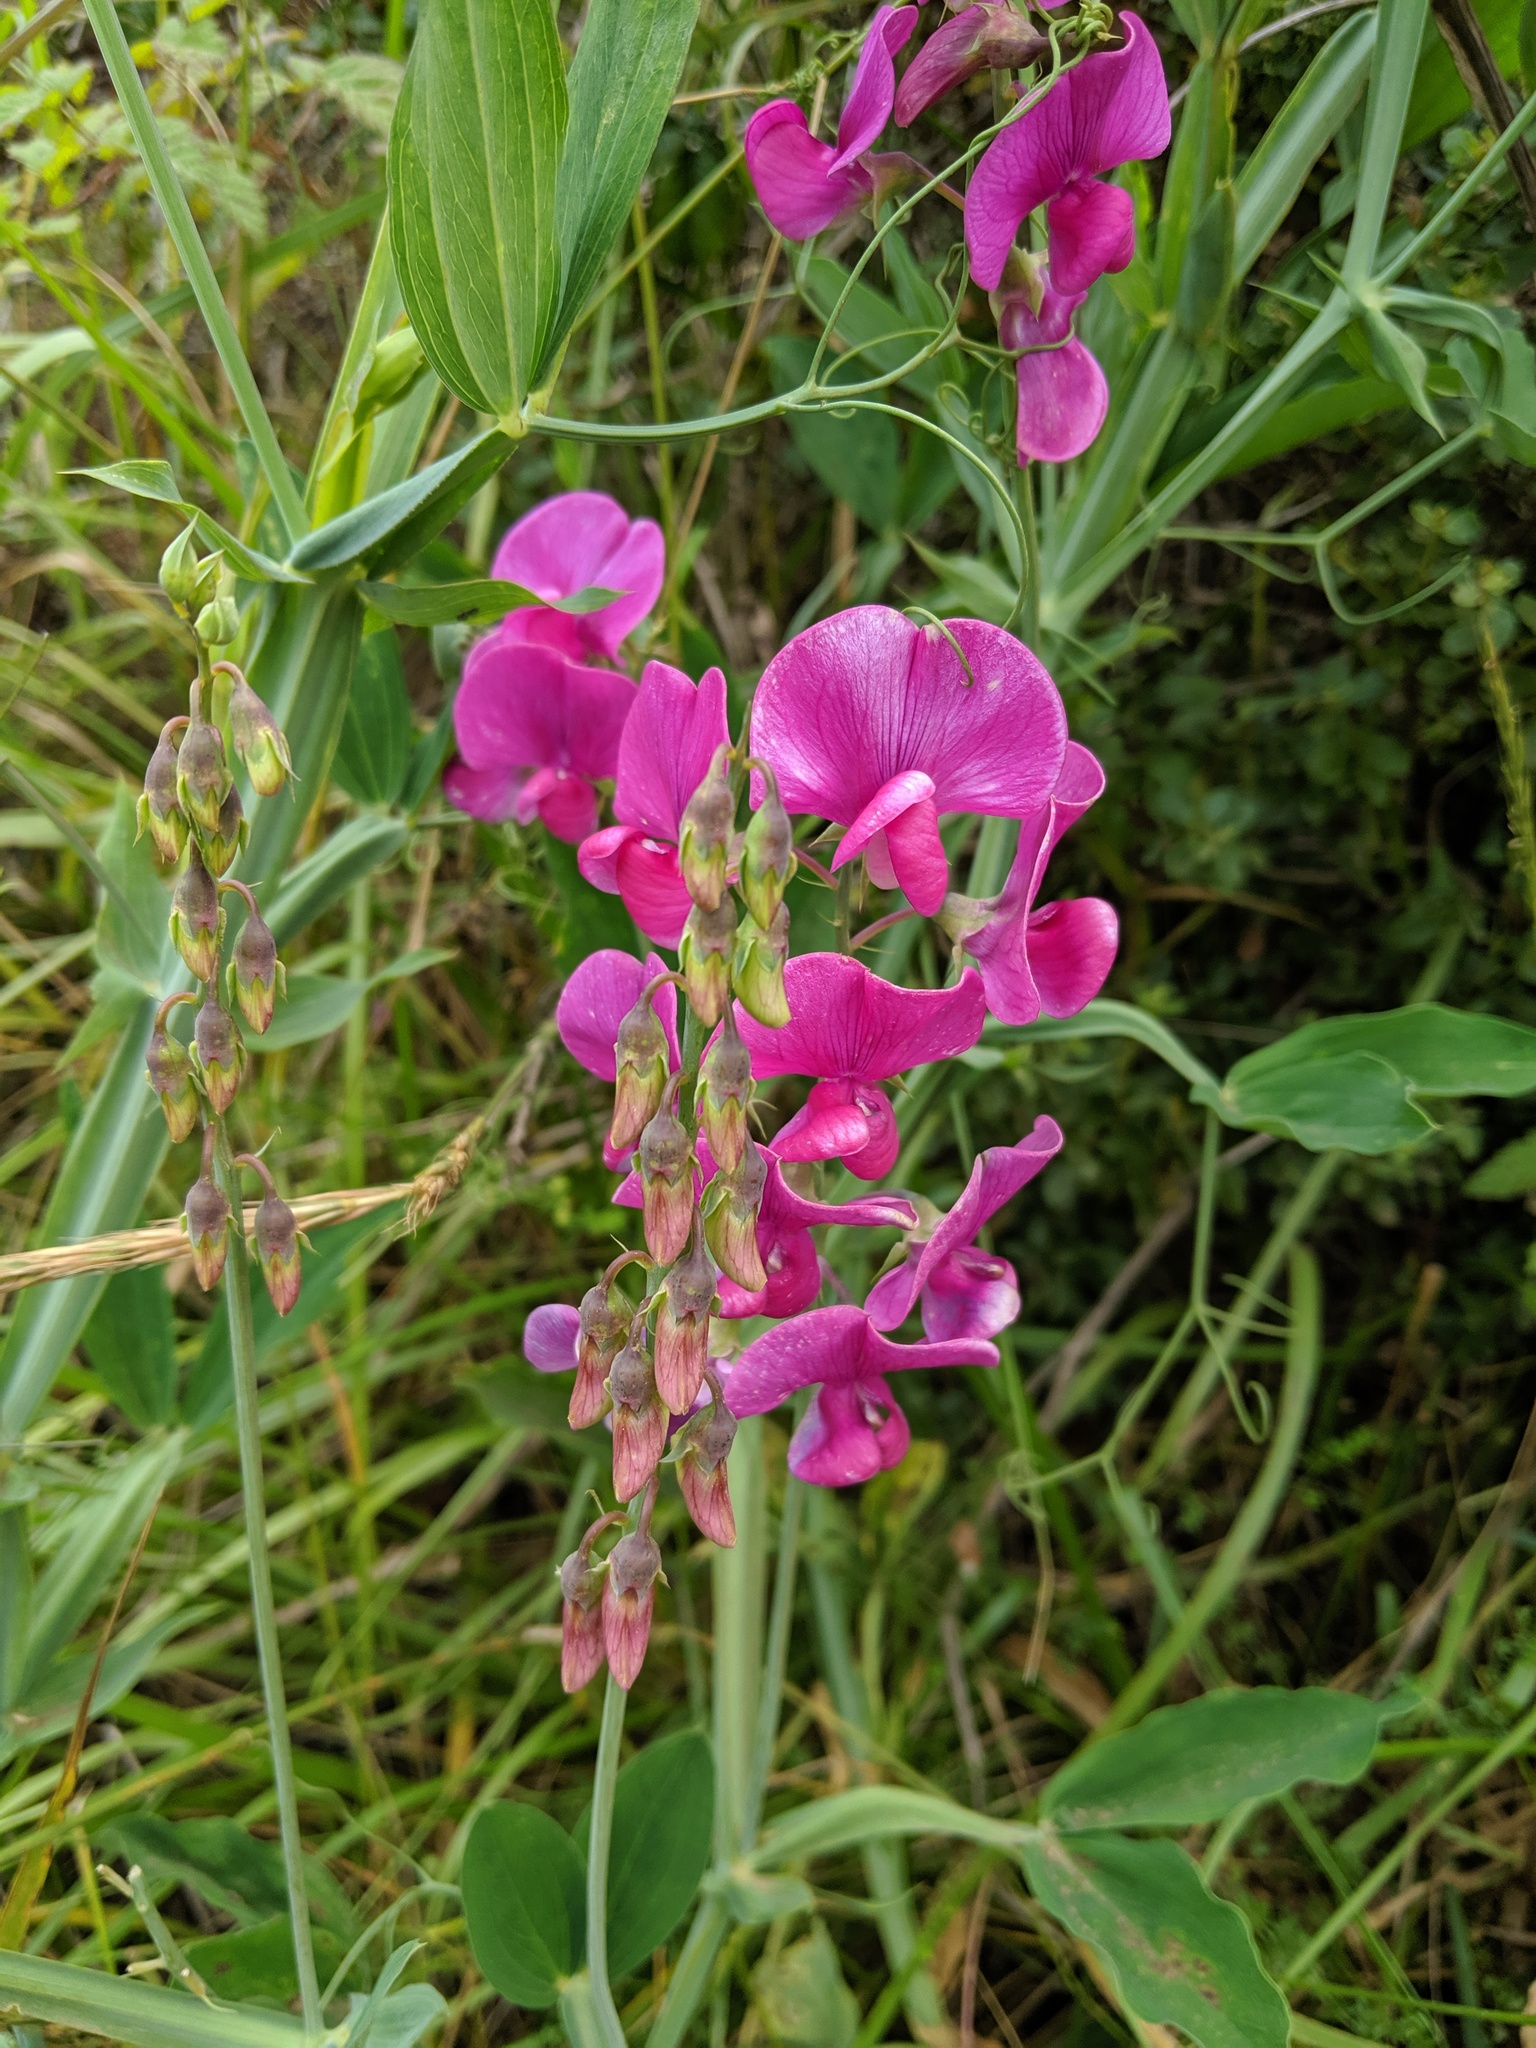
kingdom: Plantae
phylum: Tracheophyta
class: Magnoliopsida
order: Fabales
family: Fabaceae
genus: Lathyrus
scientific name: Lathyrus latifolius
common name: Perennial pea
